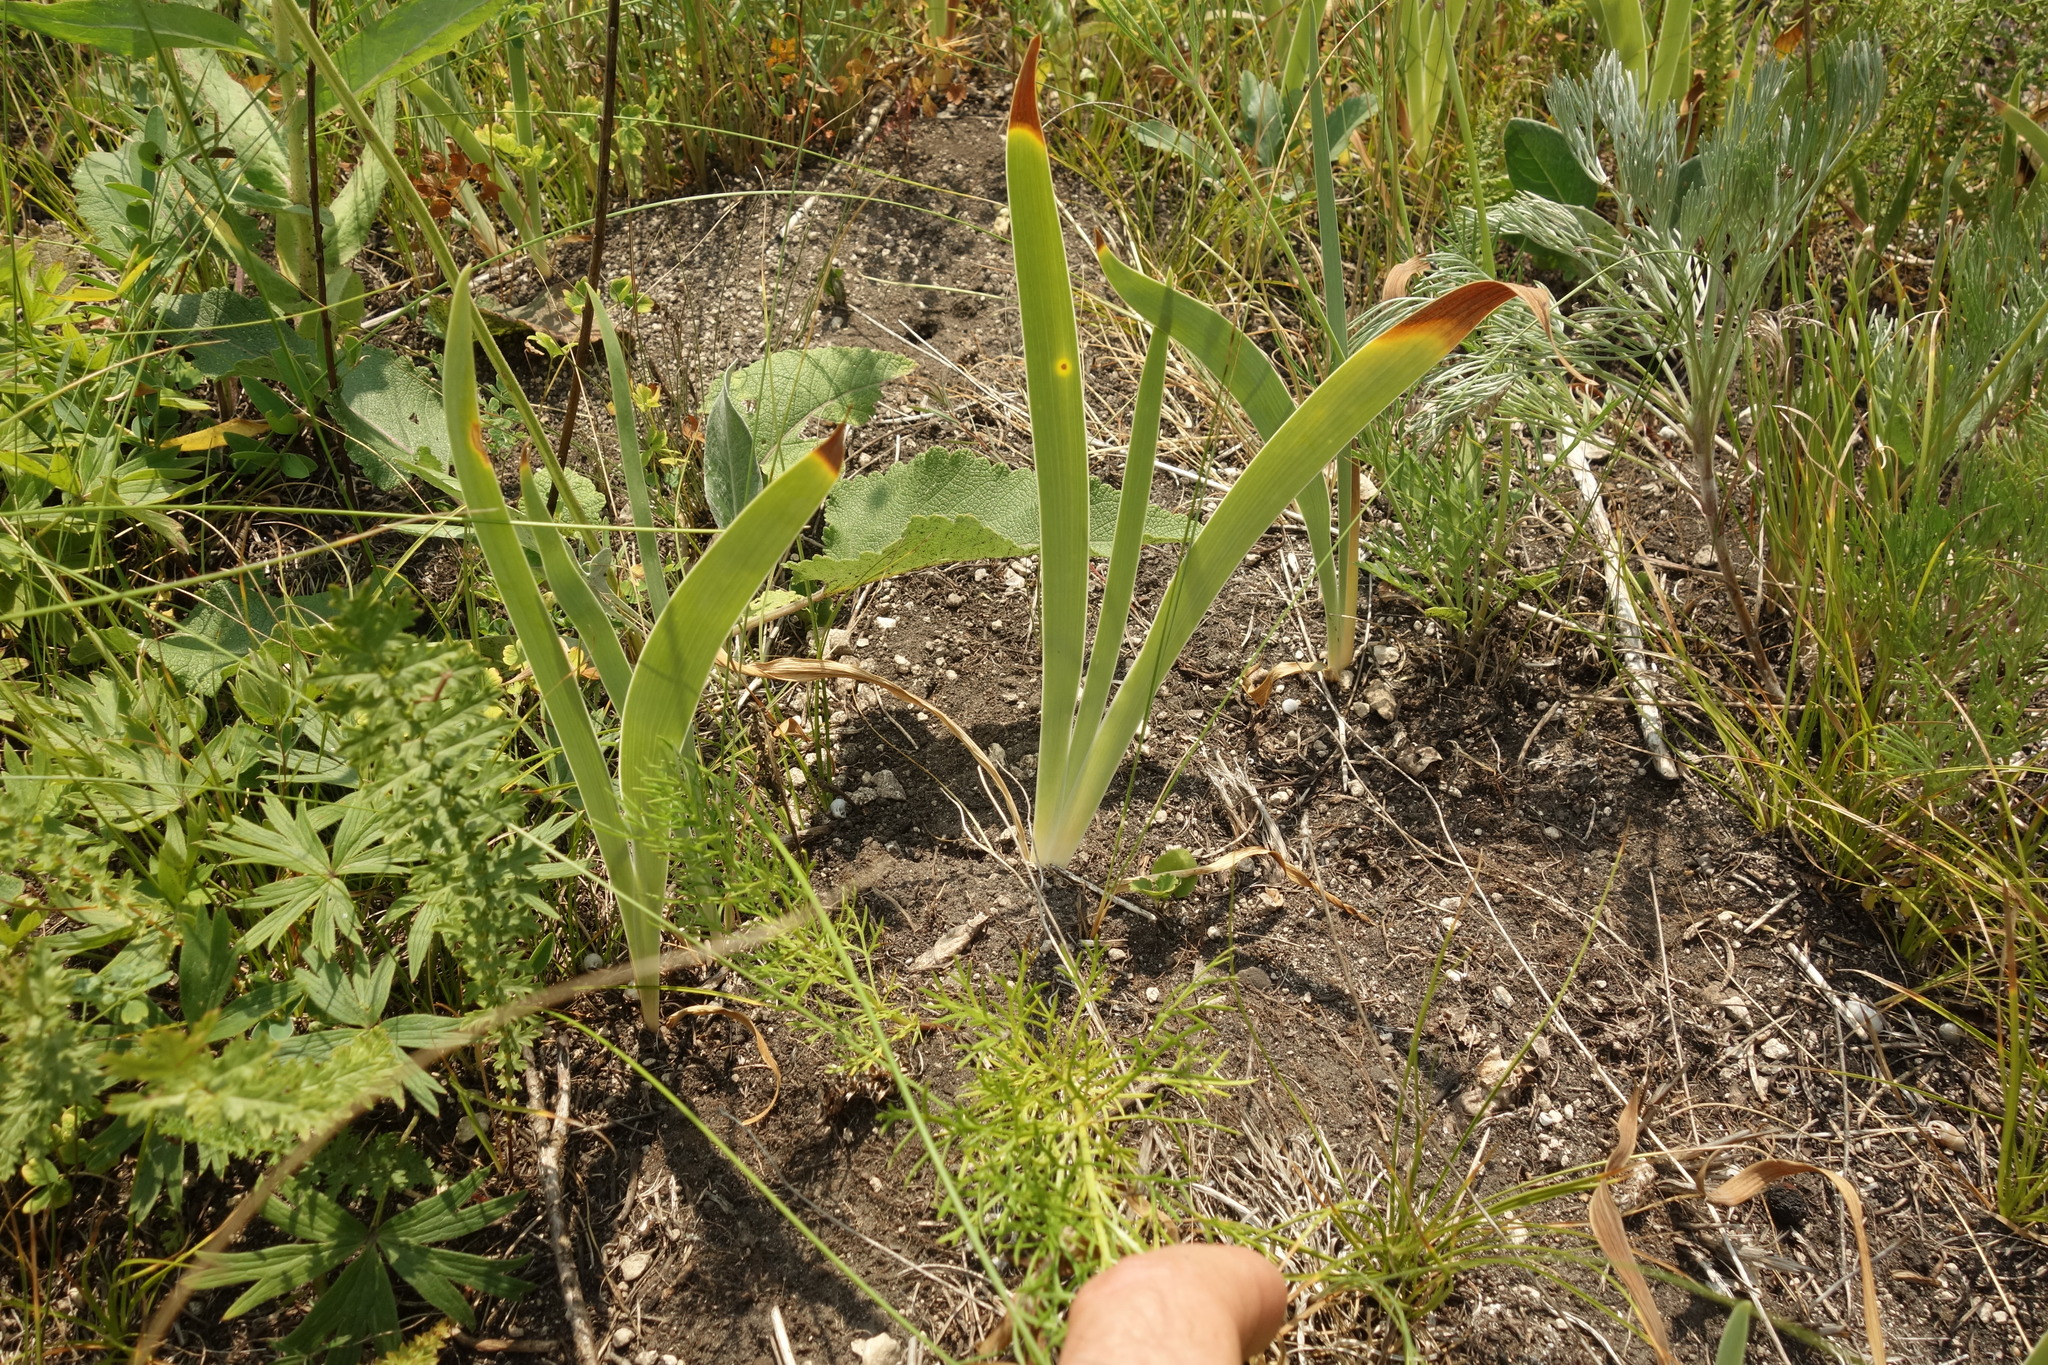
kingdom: Plantae
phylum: Tracheophyta
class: Liliopsida
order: Asparagales
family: Iridaceae
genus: Iris
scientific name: Iris aphylla
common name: Stool iris
